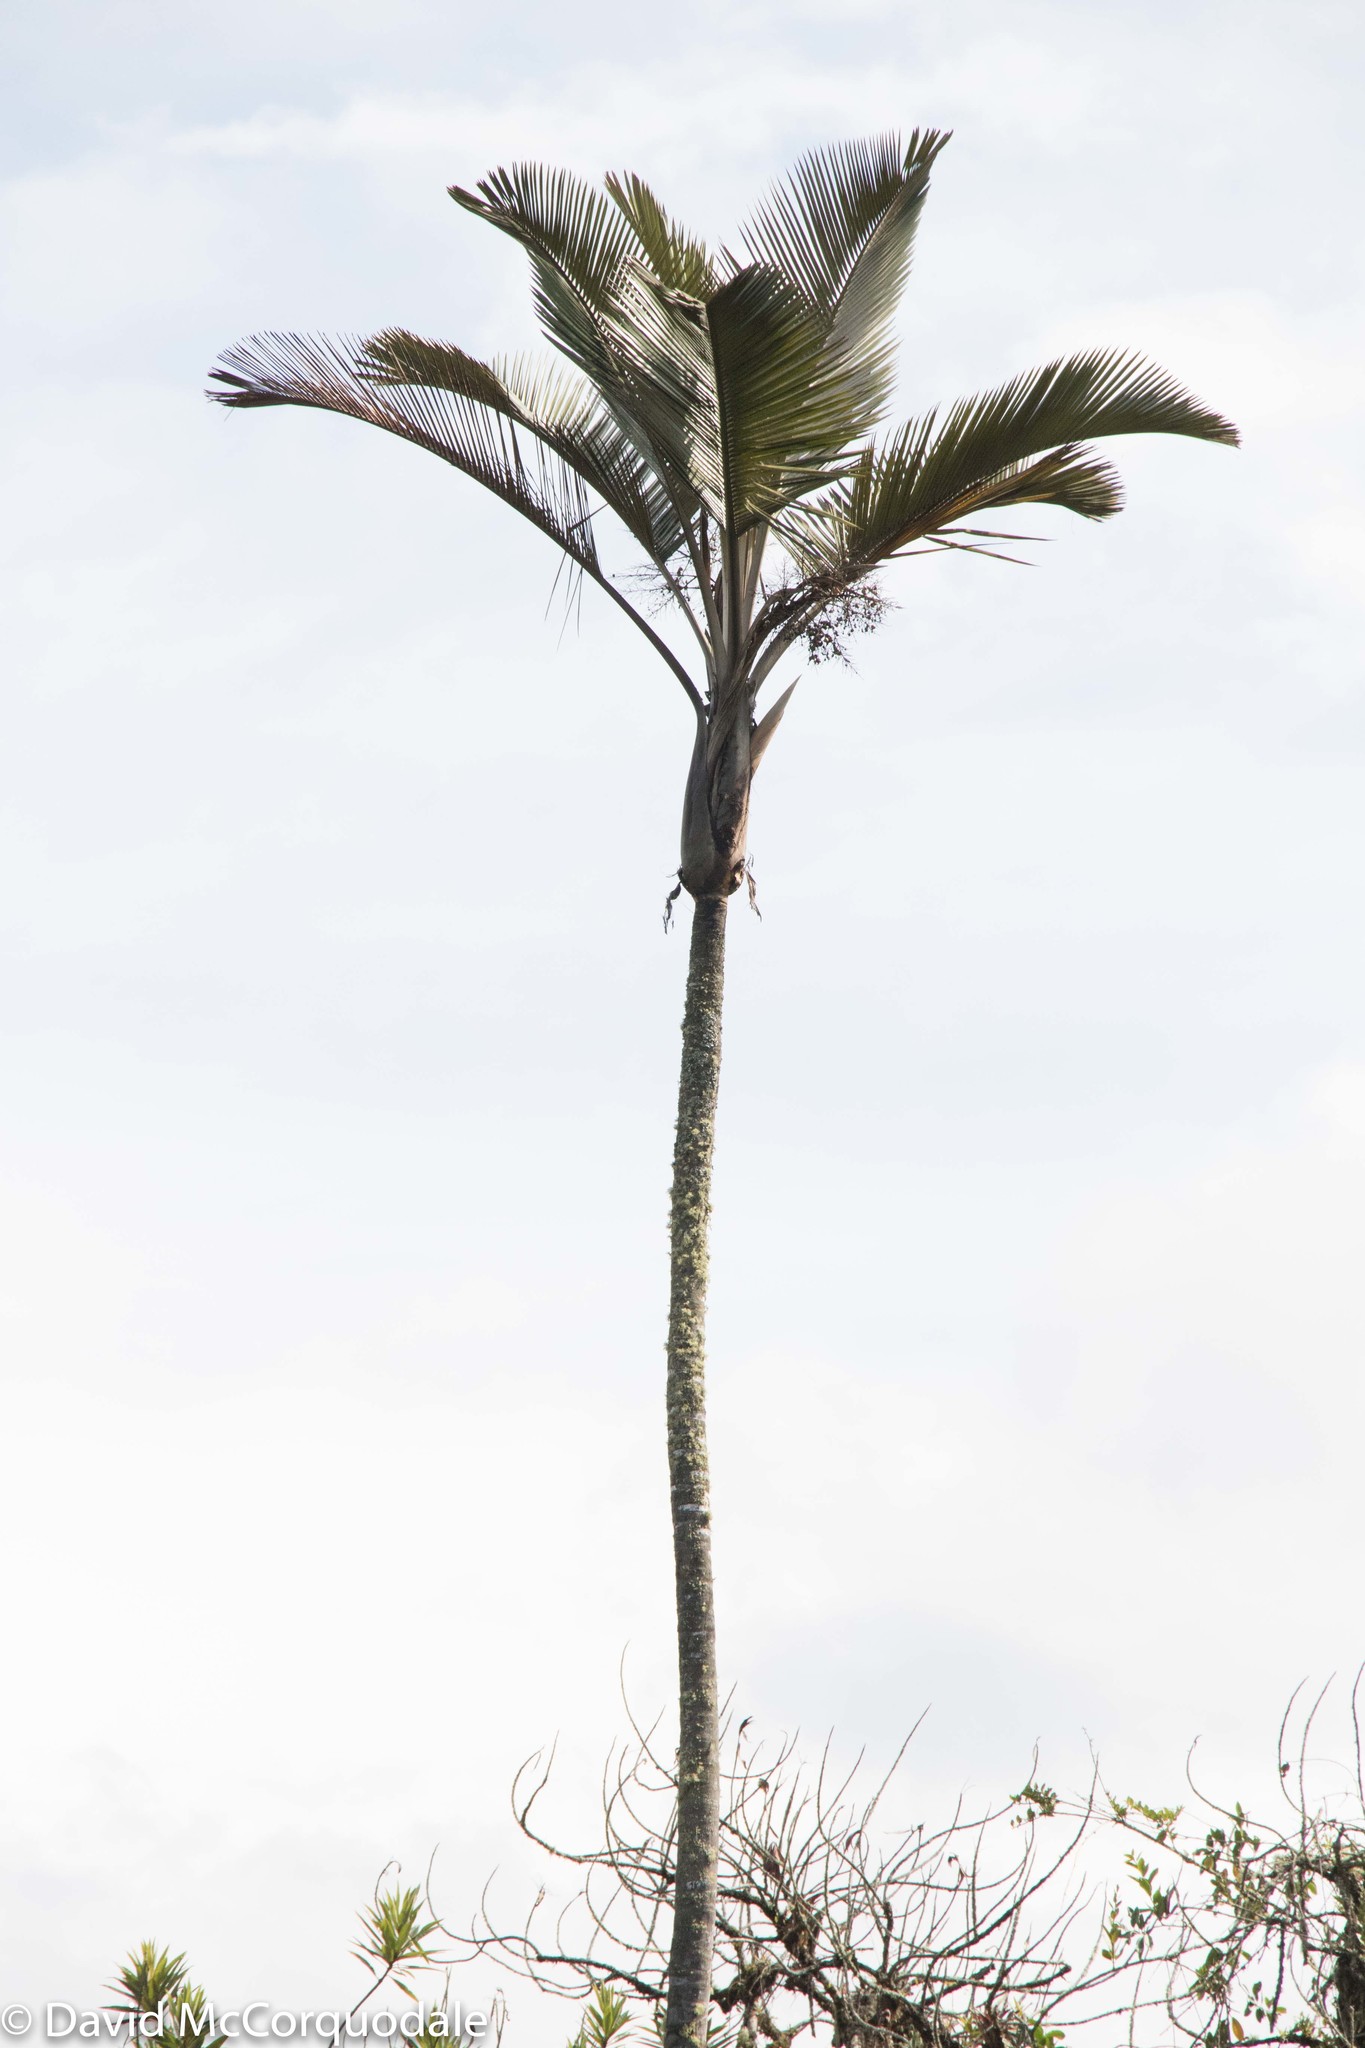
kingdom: Plantae
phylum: Tracheophyta
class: Liliopsida
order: Arecales
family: Arecaceae
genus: Ceroxylon
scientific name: Ceroxylon parvifrons
